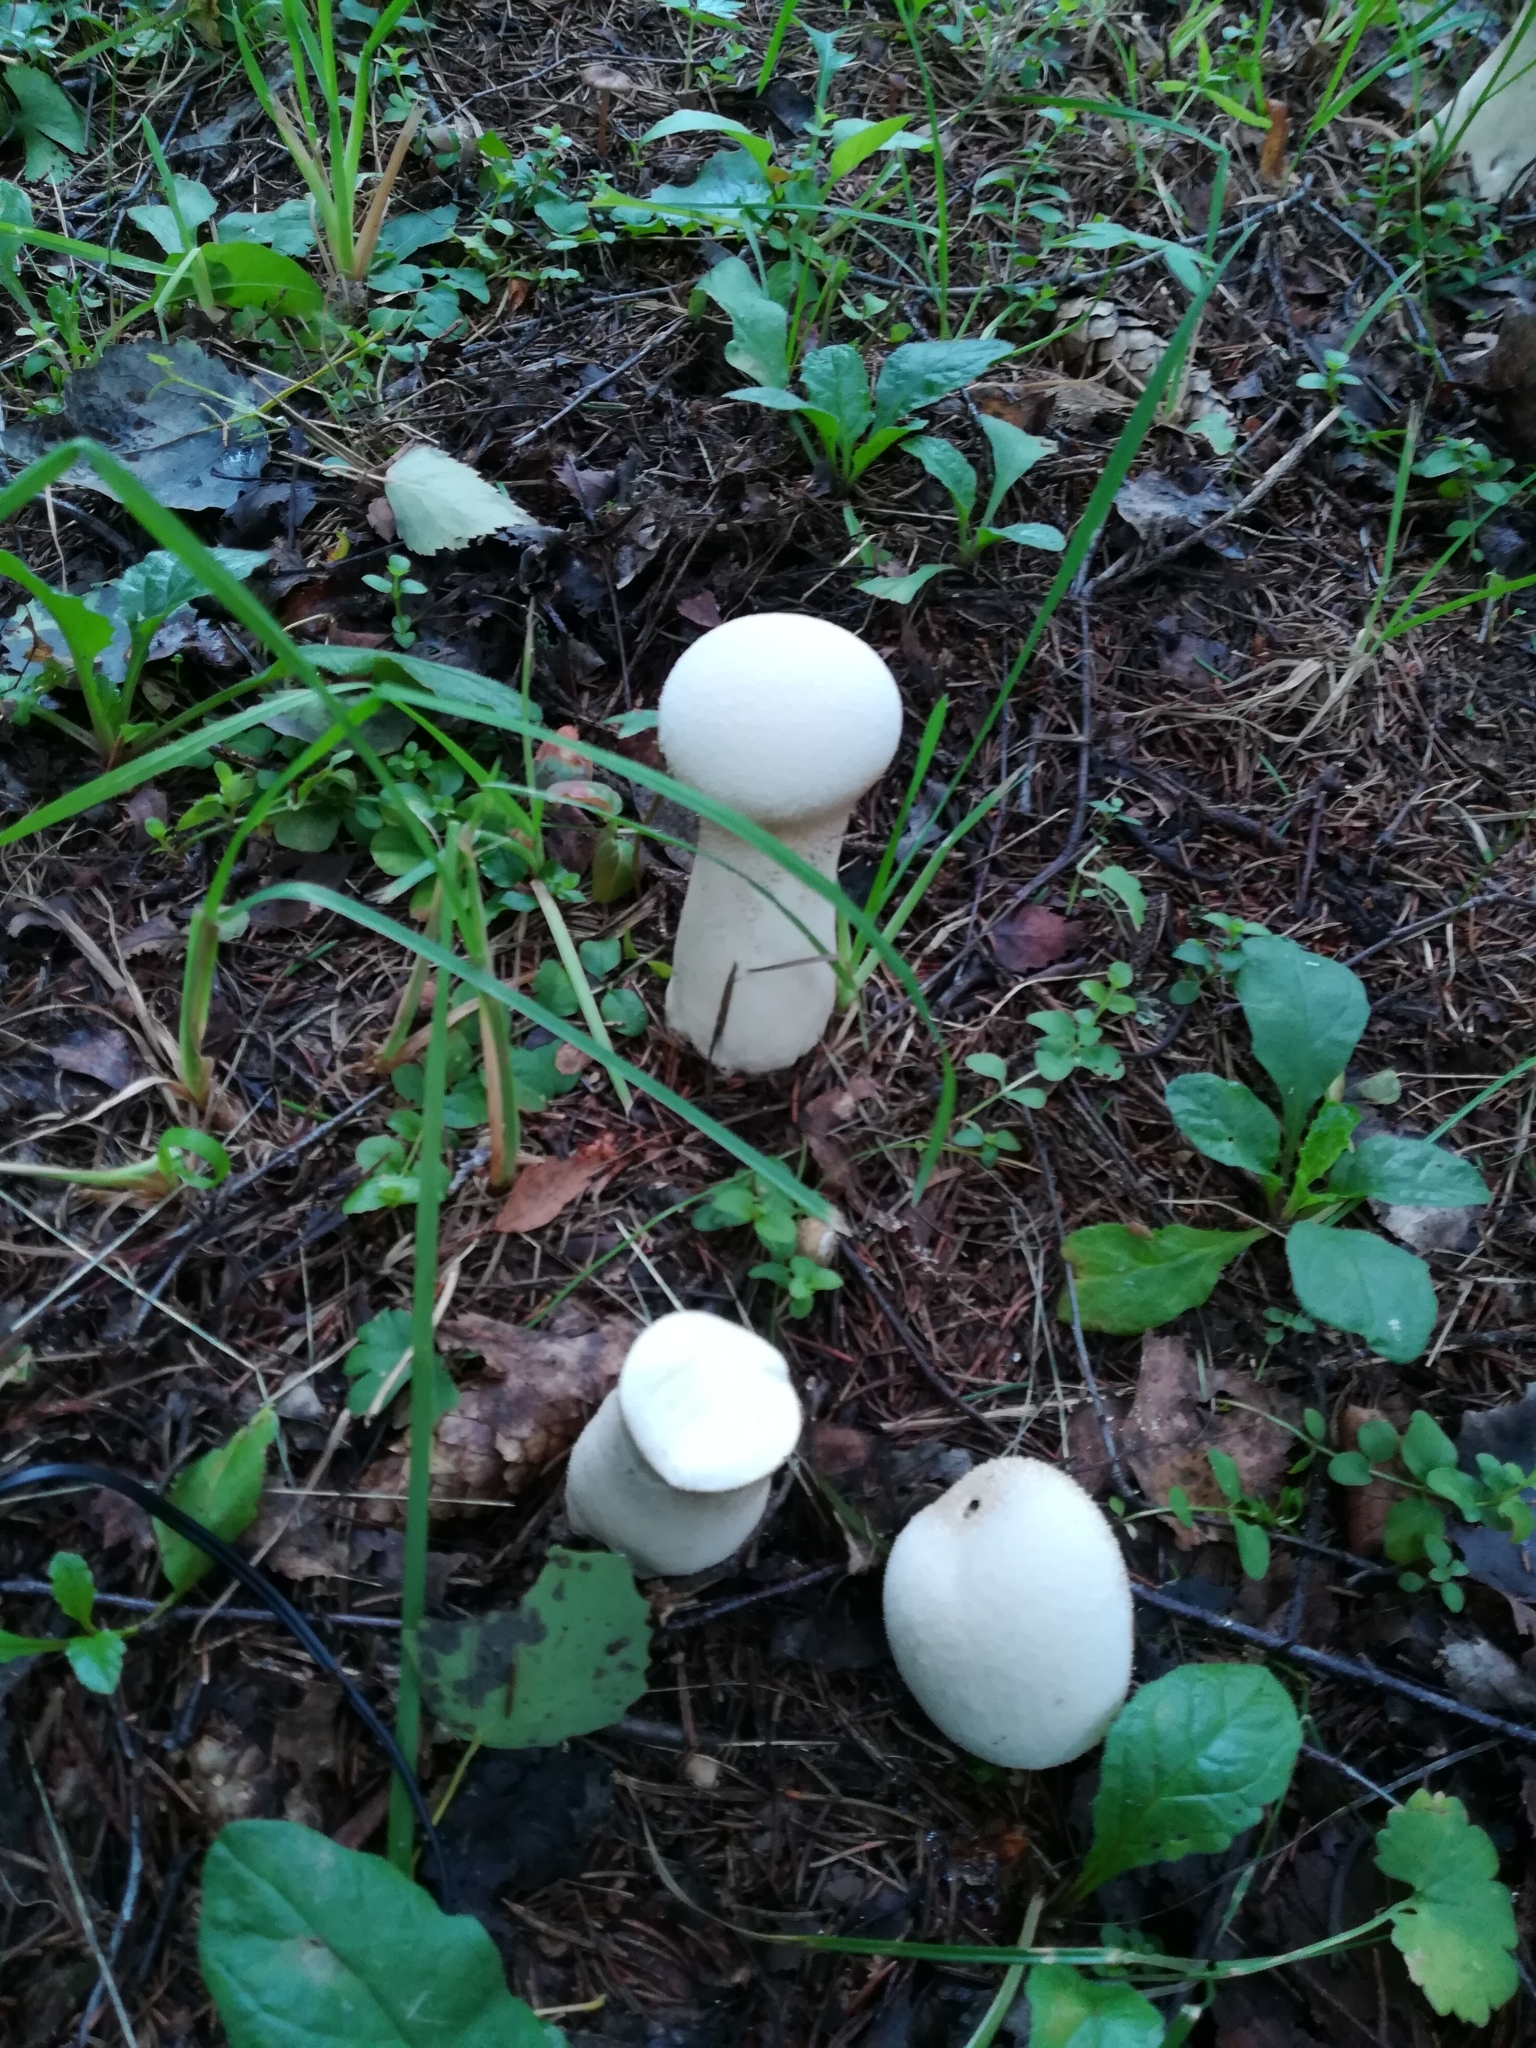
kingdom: Fungi
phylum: Basidiomycota
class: Agaricomycetes
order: Agaricales
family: Lycoperdaceae
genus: Lycoperdon
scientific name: Lycoperdon excipuliforme
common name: Pestle puffball
